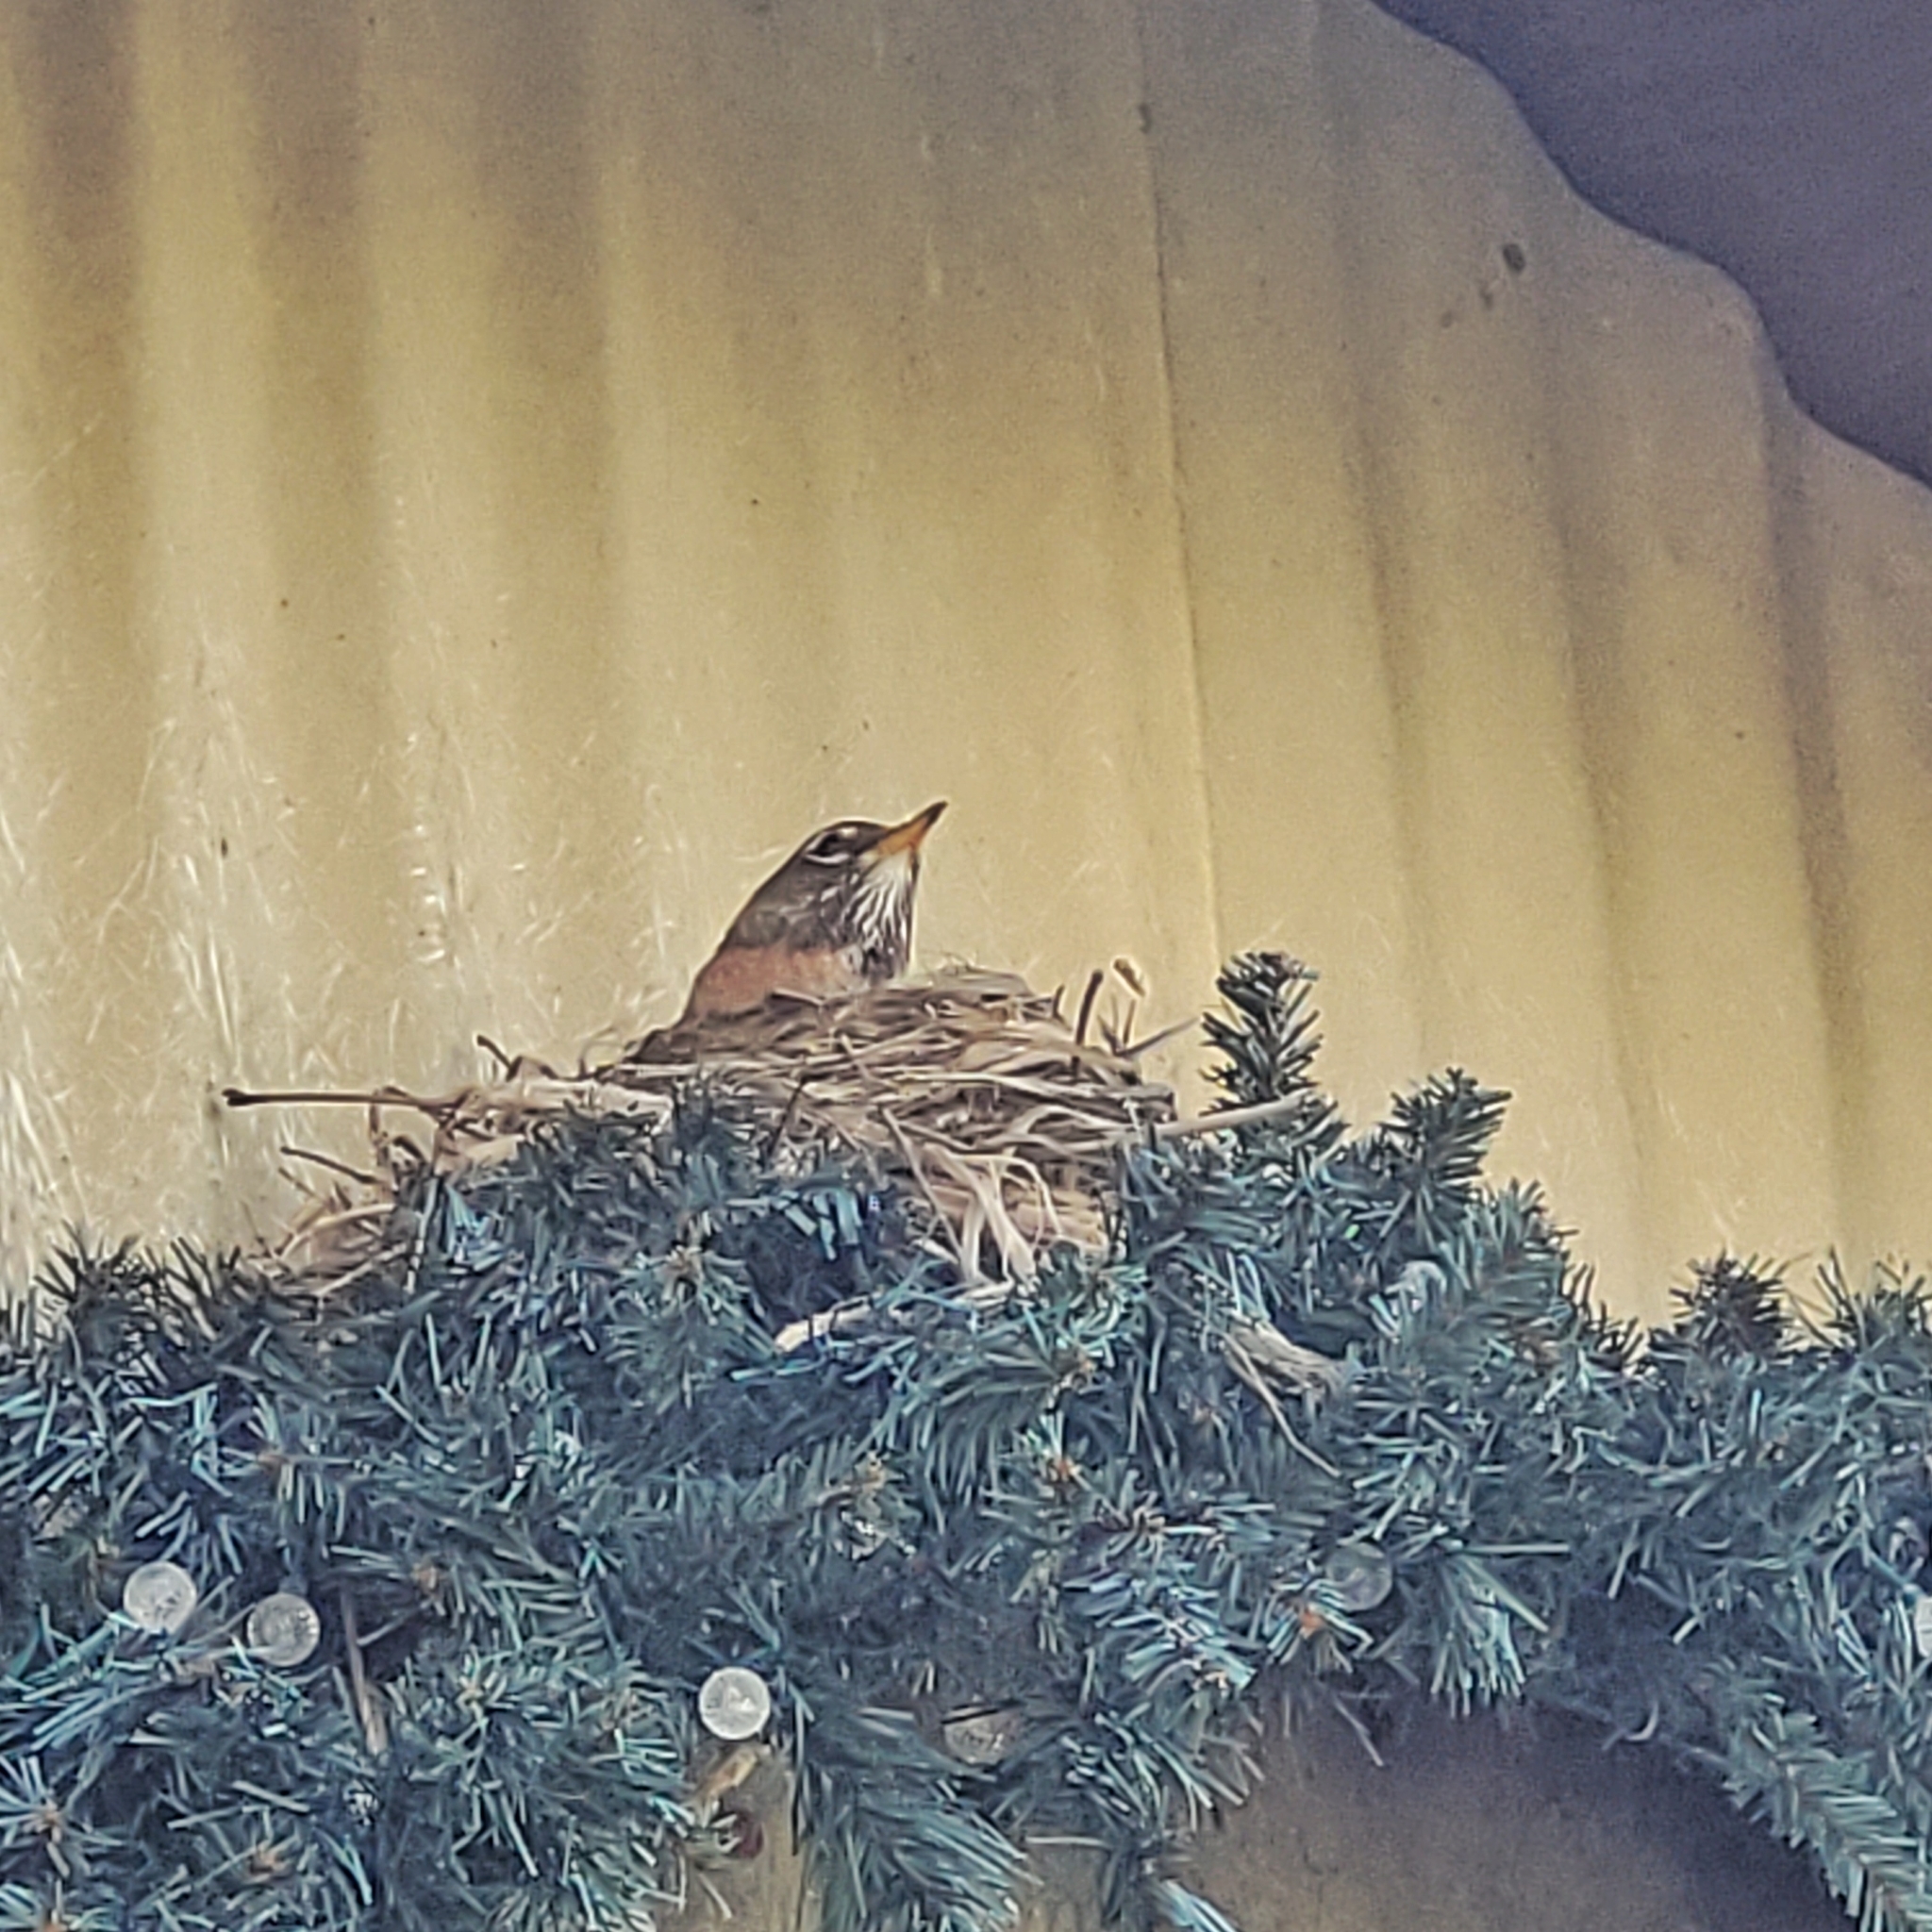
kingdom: Animalia
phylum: Chordata
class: Aves
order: Passeriformes
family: Turdidae
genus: Turdus
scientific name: Turdus migratorius
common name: American robin
